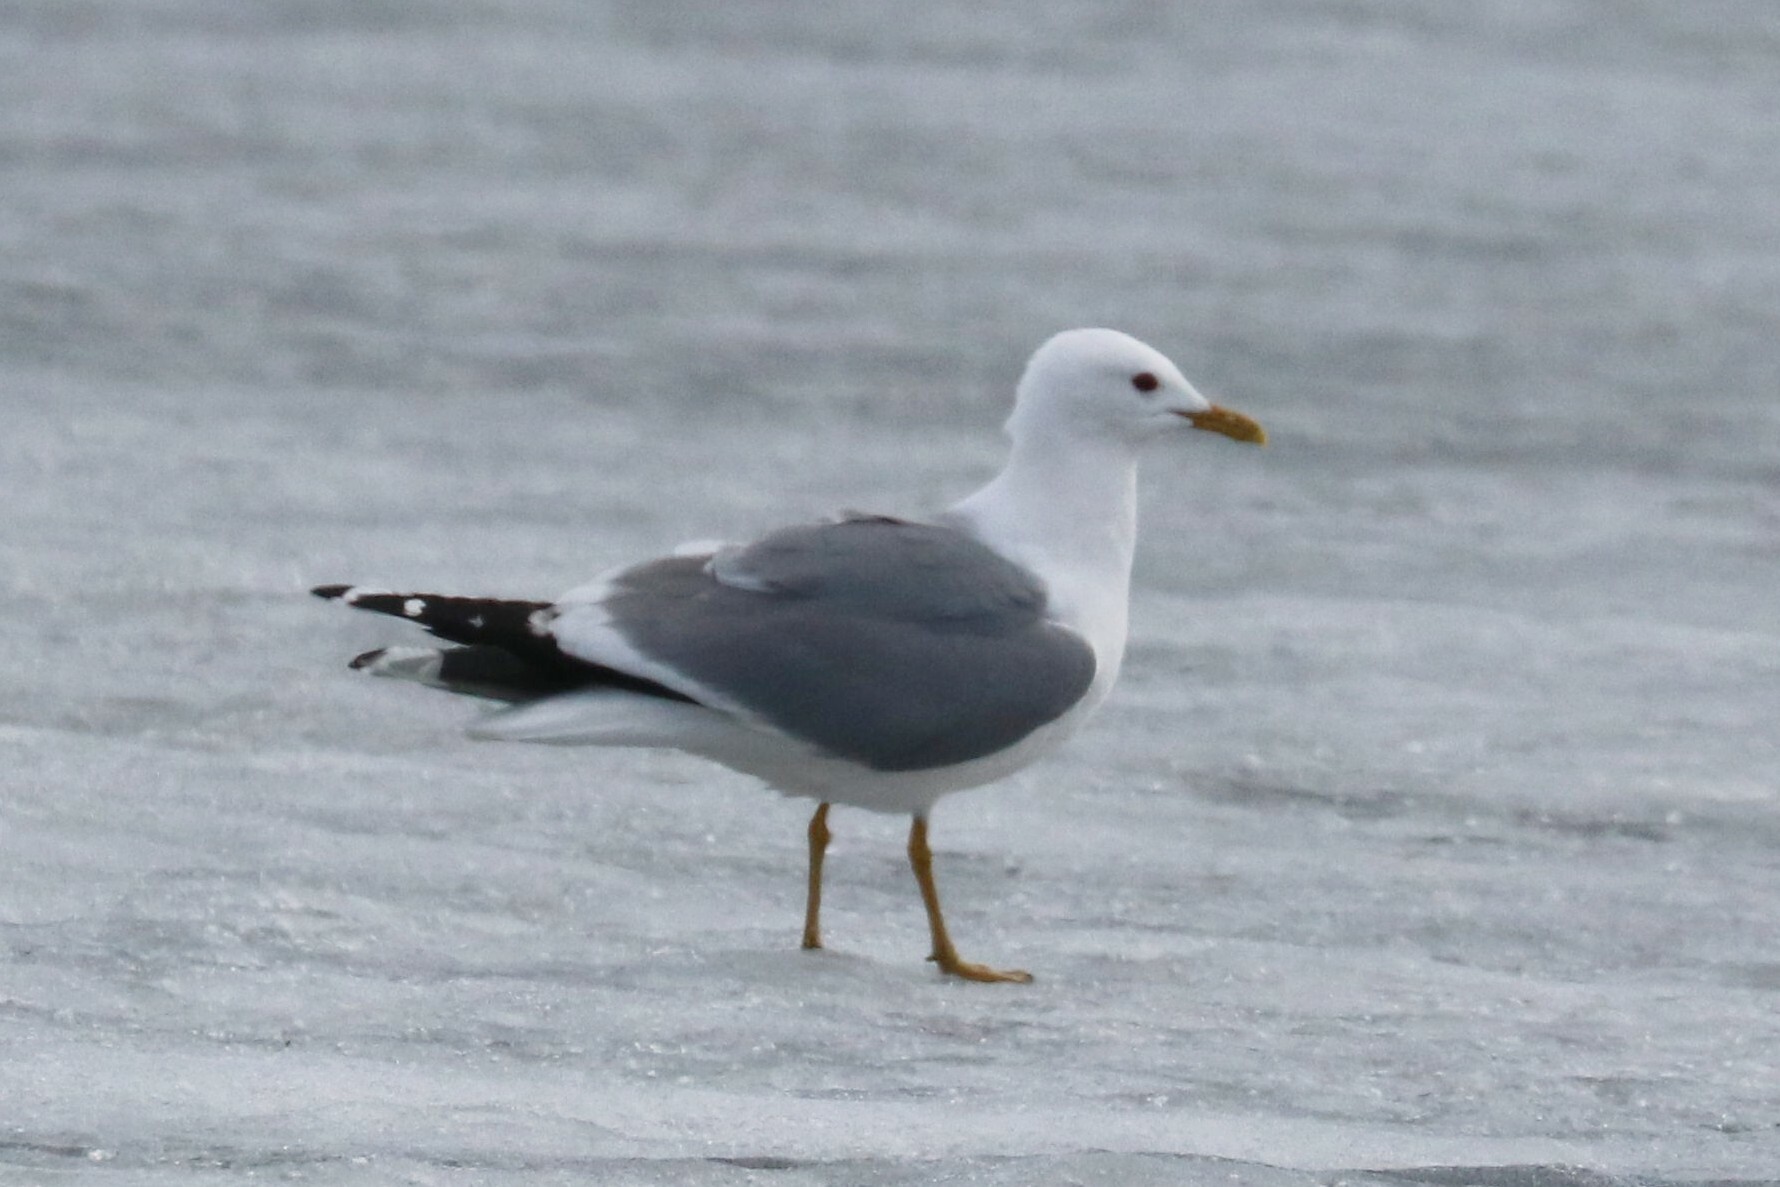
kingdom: Animalia
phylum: Chordata
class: Aves
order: Charadriiformes
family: Laridae
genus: Larus
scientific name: Larus canus
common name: Mew gull
